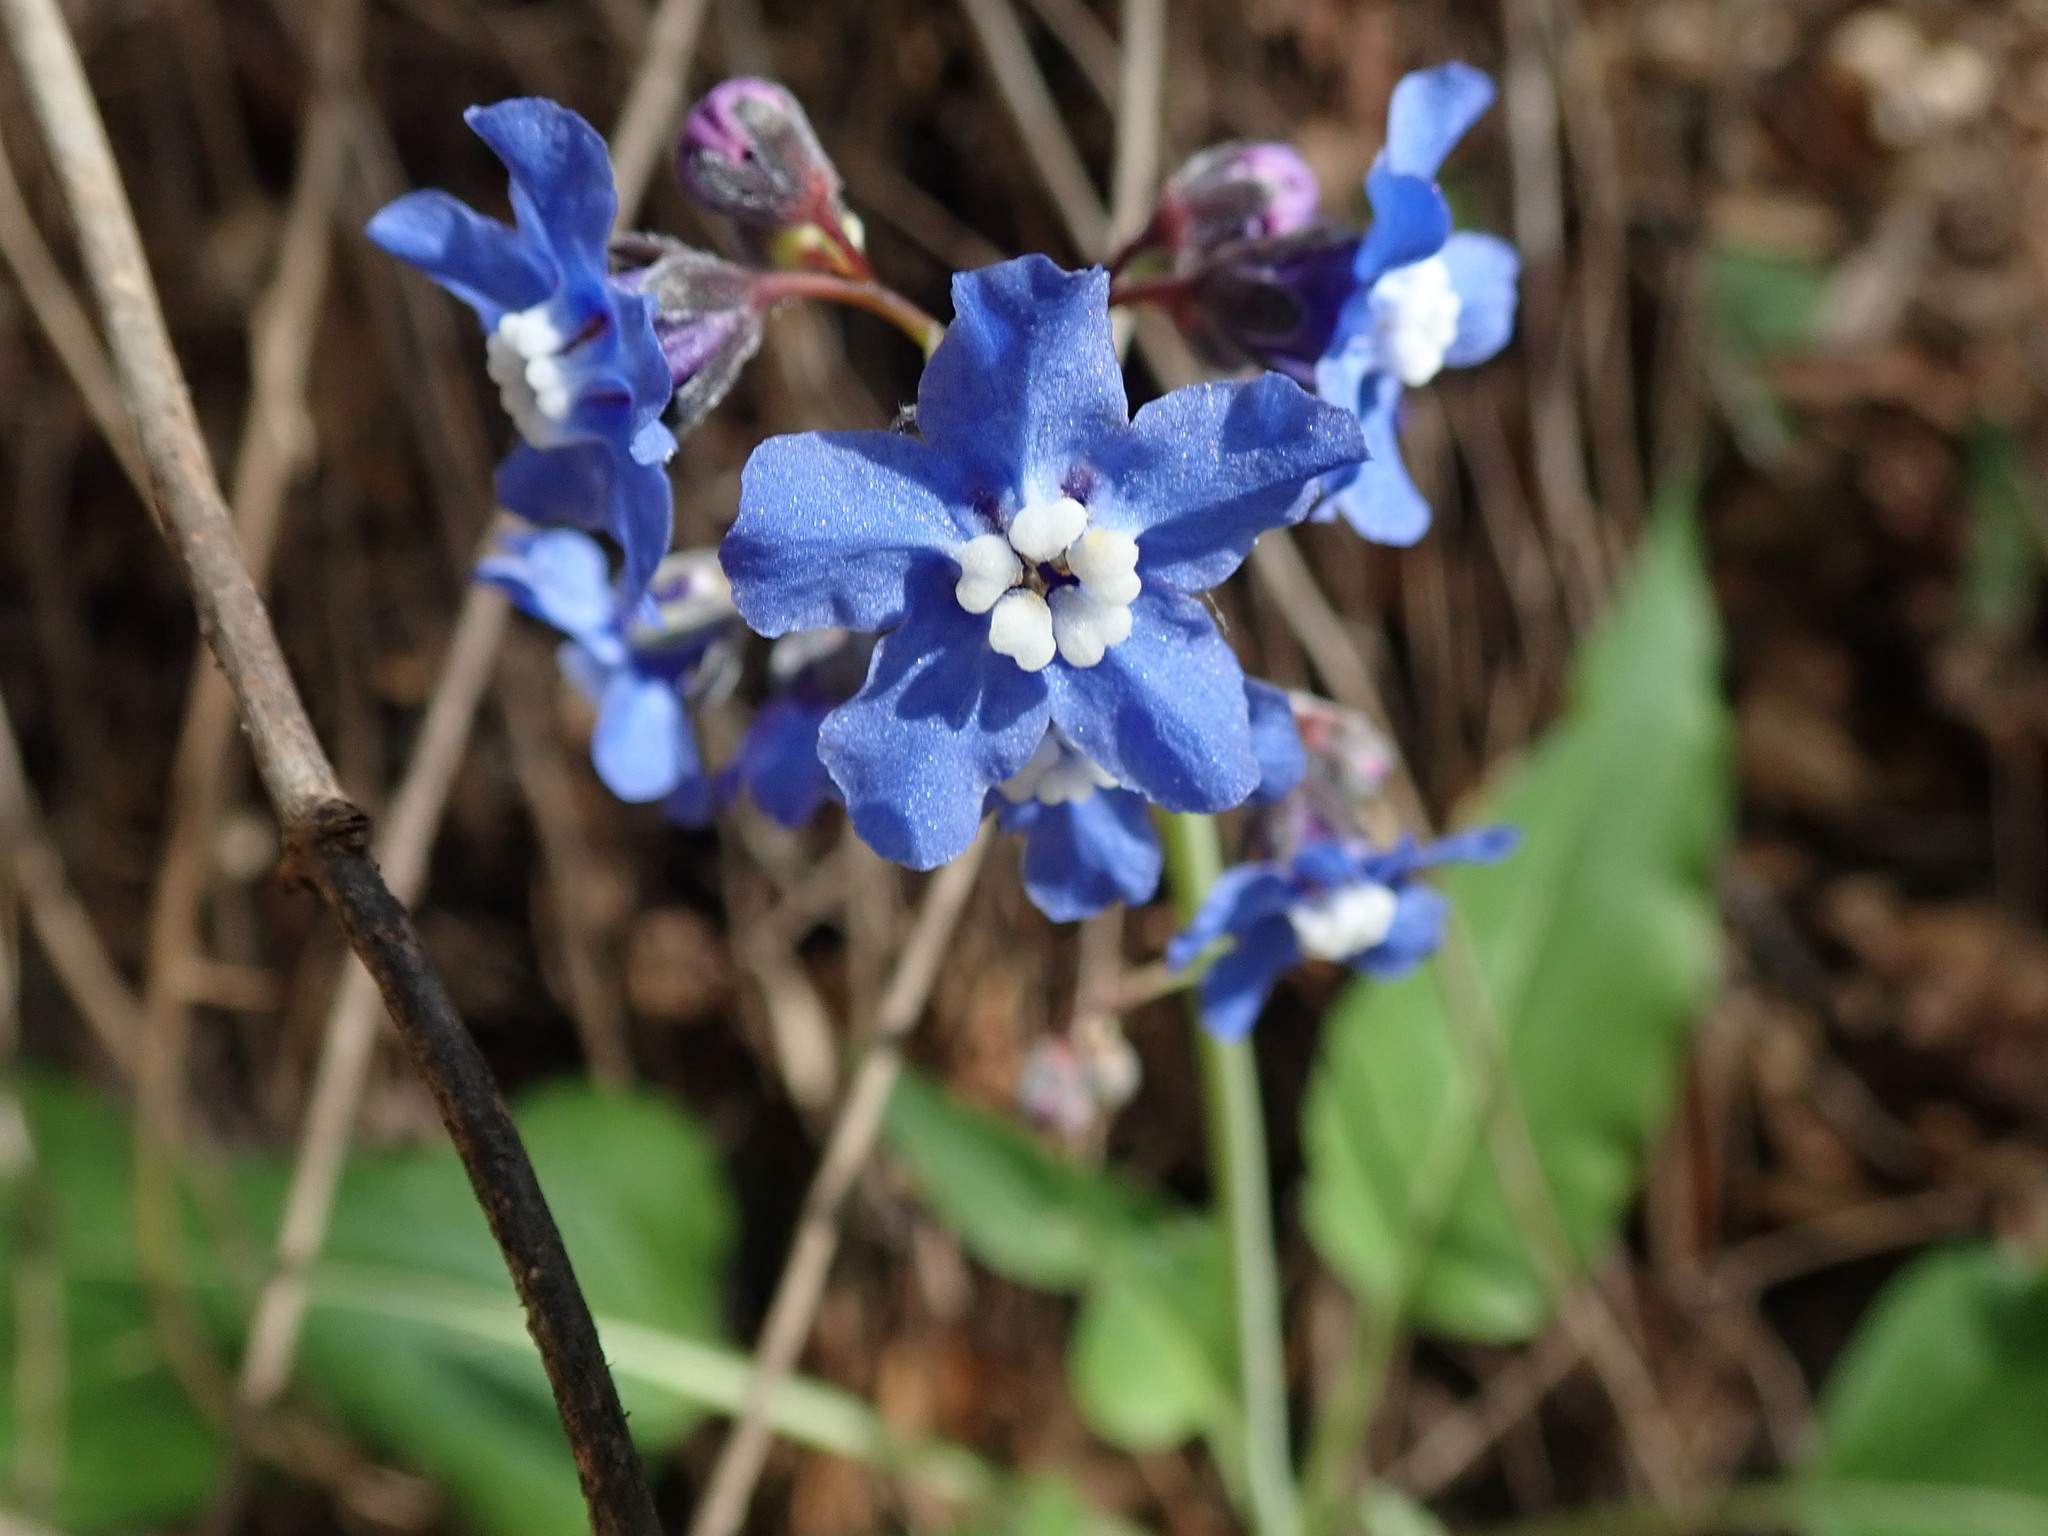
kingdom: Plantae
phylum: Tracheophyta
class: Magnoliopsida
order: Boraginales
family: Boraginaceae
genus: Adelinia
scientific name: Adelinia grande
